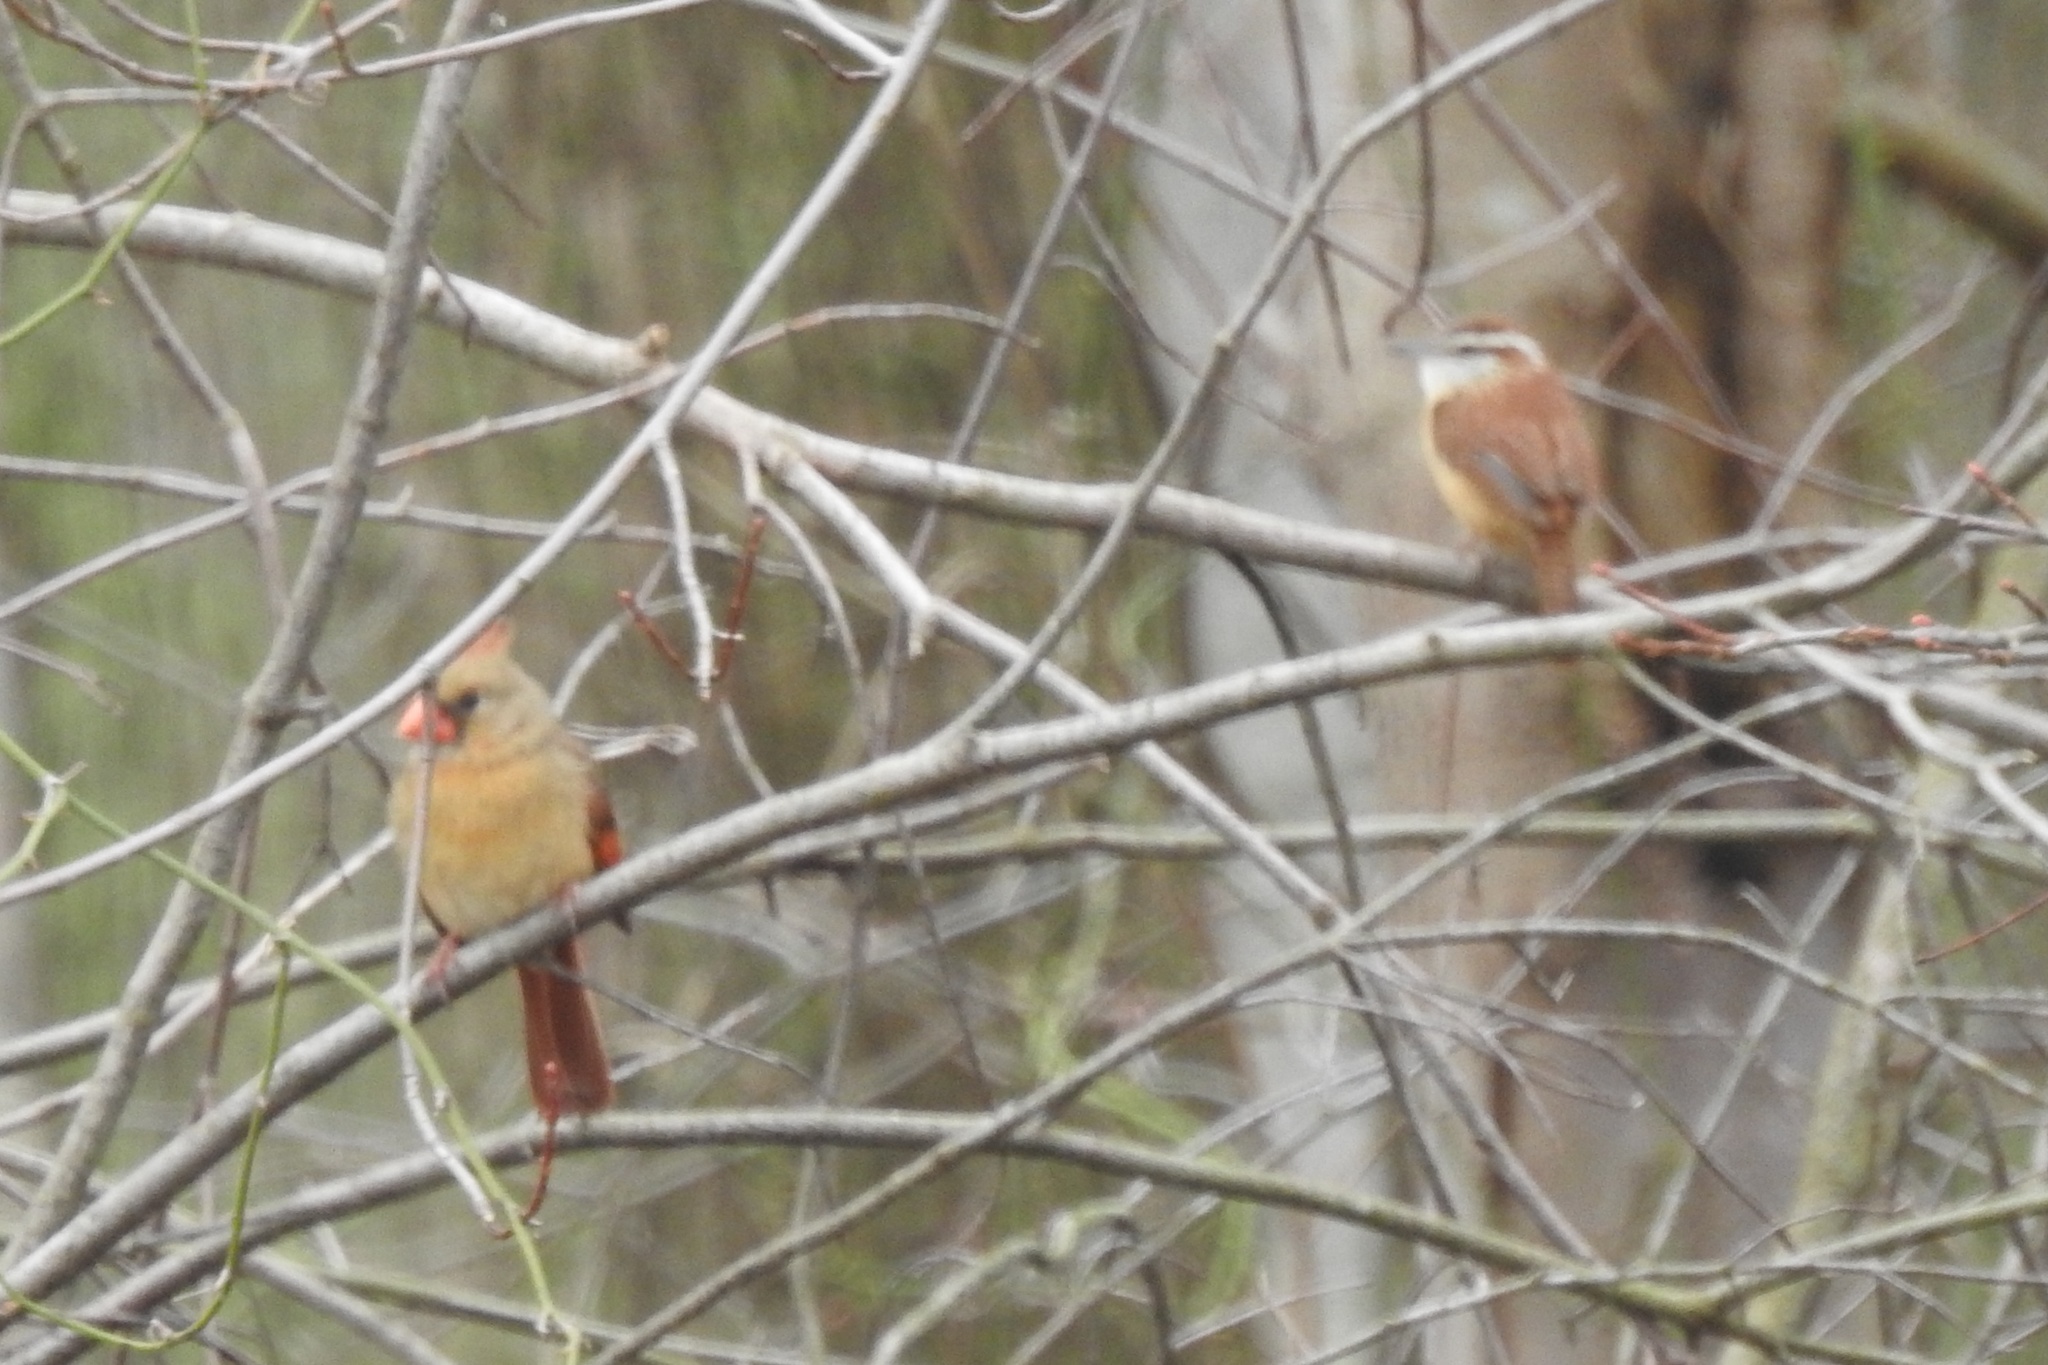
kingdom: Animalia
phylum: Chordata
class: Aves
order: Passeriformes
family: Troglodytidae
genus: Thryothorus
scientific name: Thryothorus ludovicianus
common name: Carolina wren
